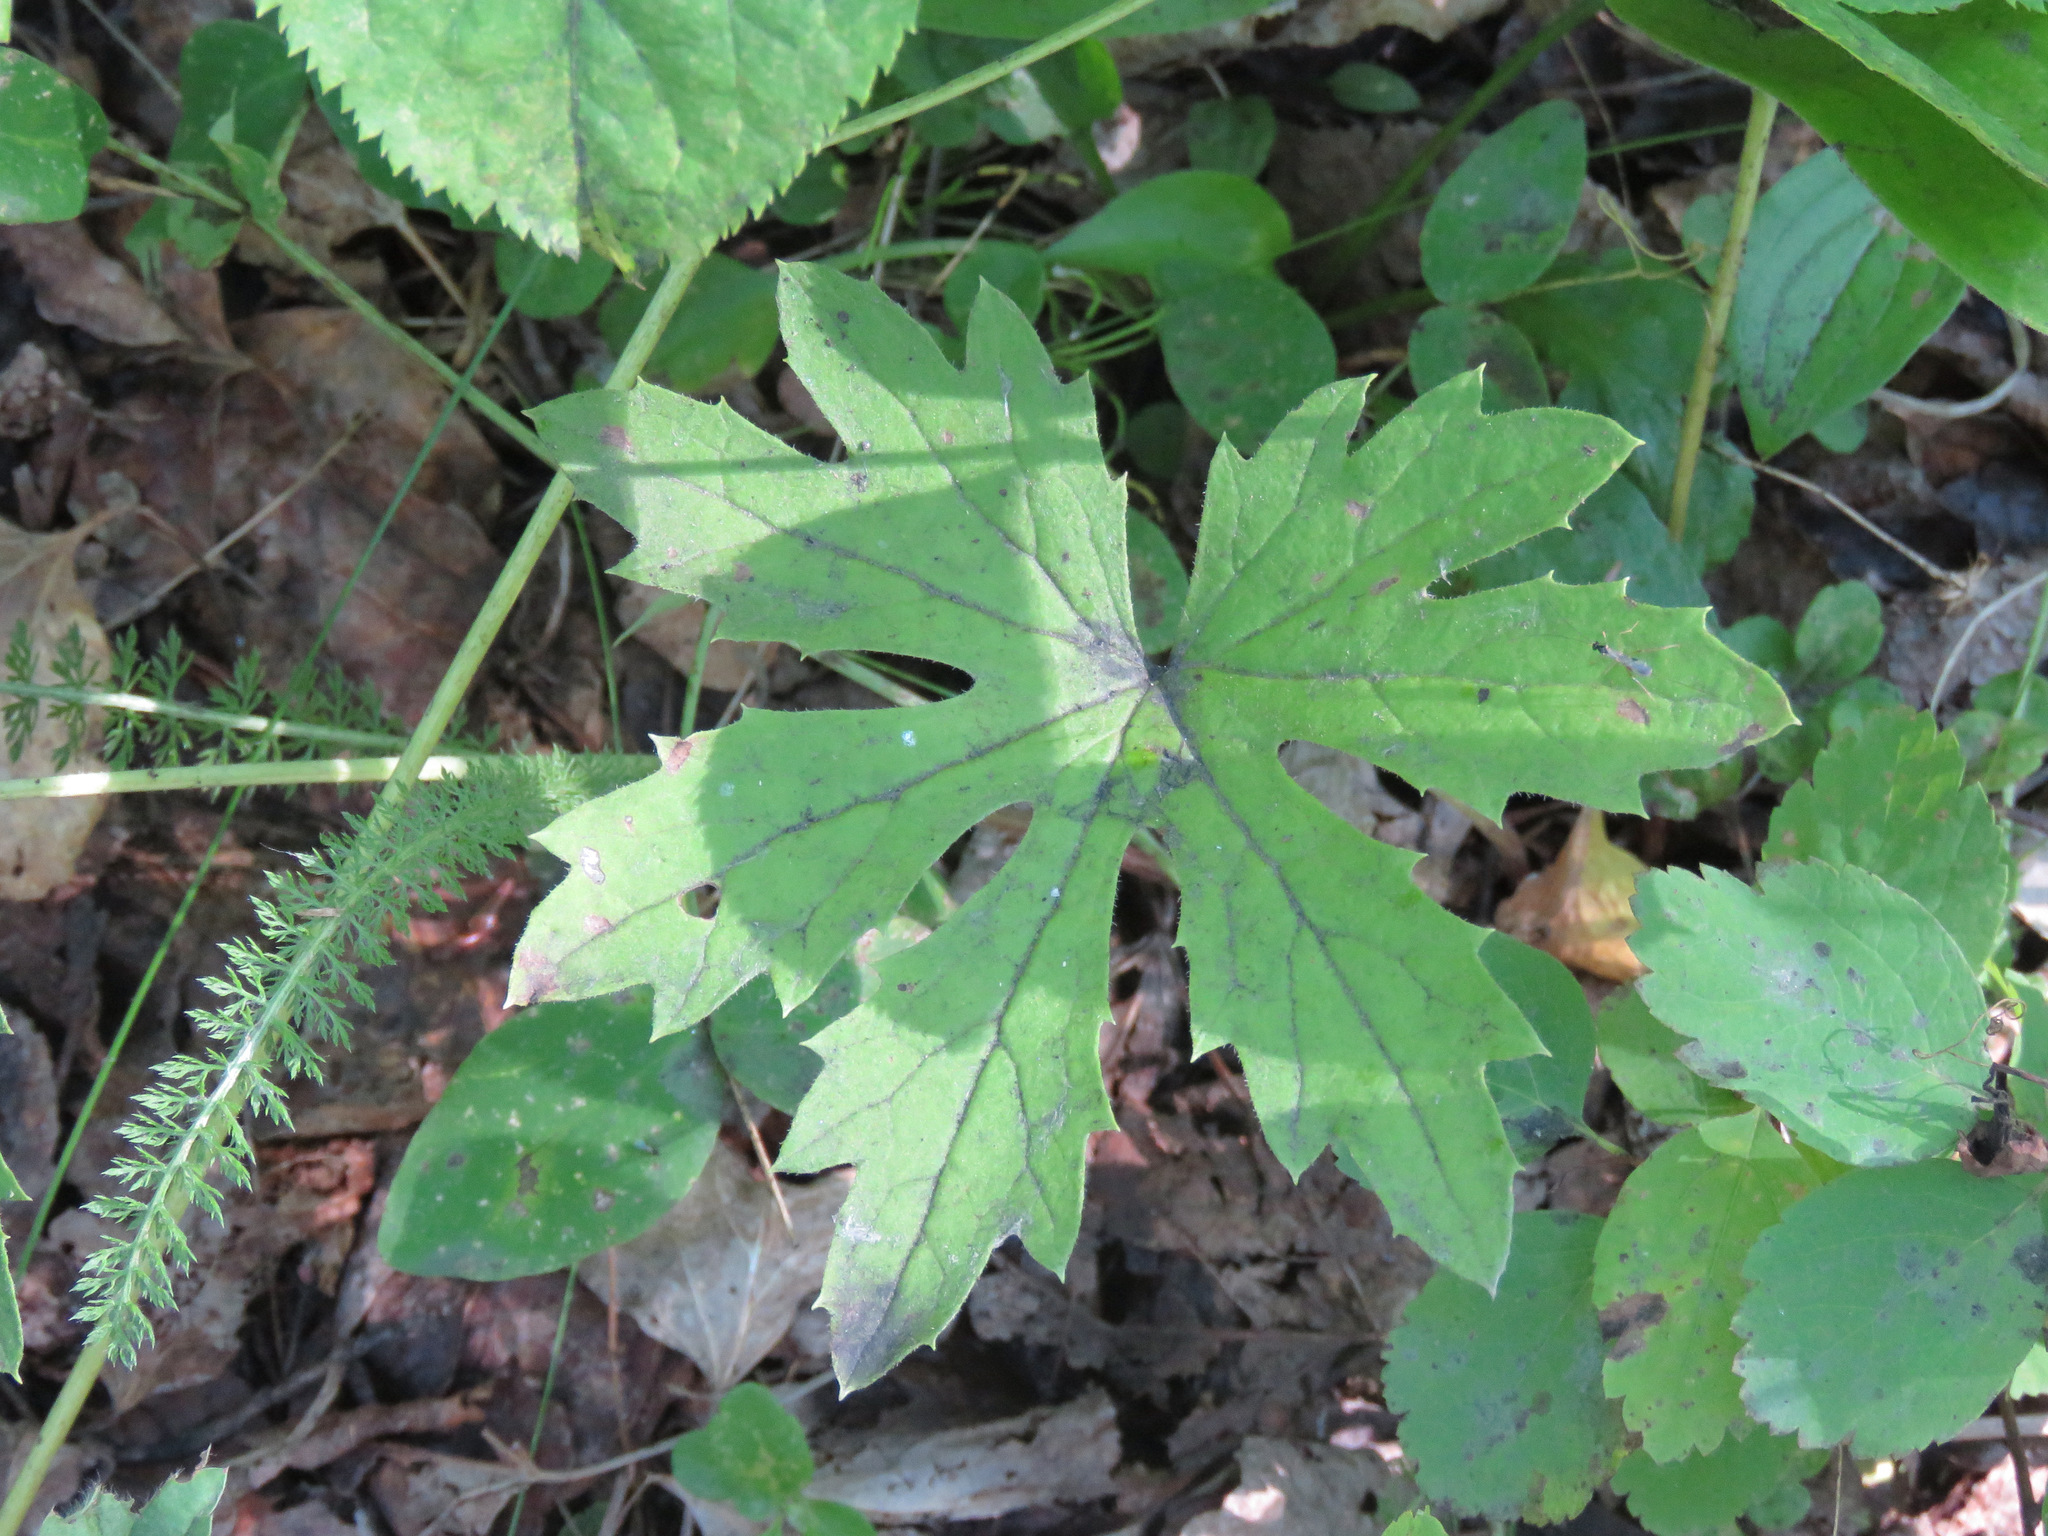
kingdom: Plantae
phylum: Tracheophyta
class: Magnoliopsida
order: Asterales
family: Asteraceae
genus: Petasites
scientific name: Petasites frigidus
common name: Arctic butterbur
